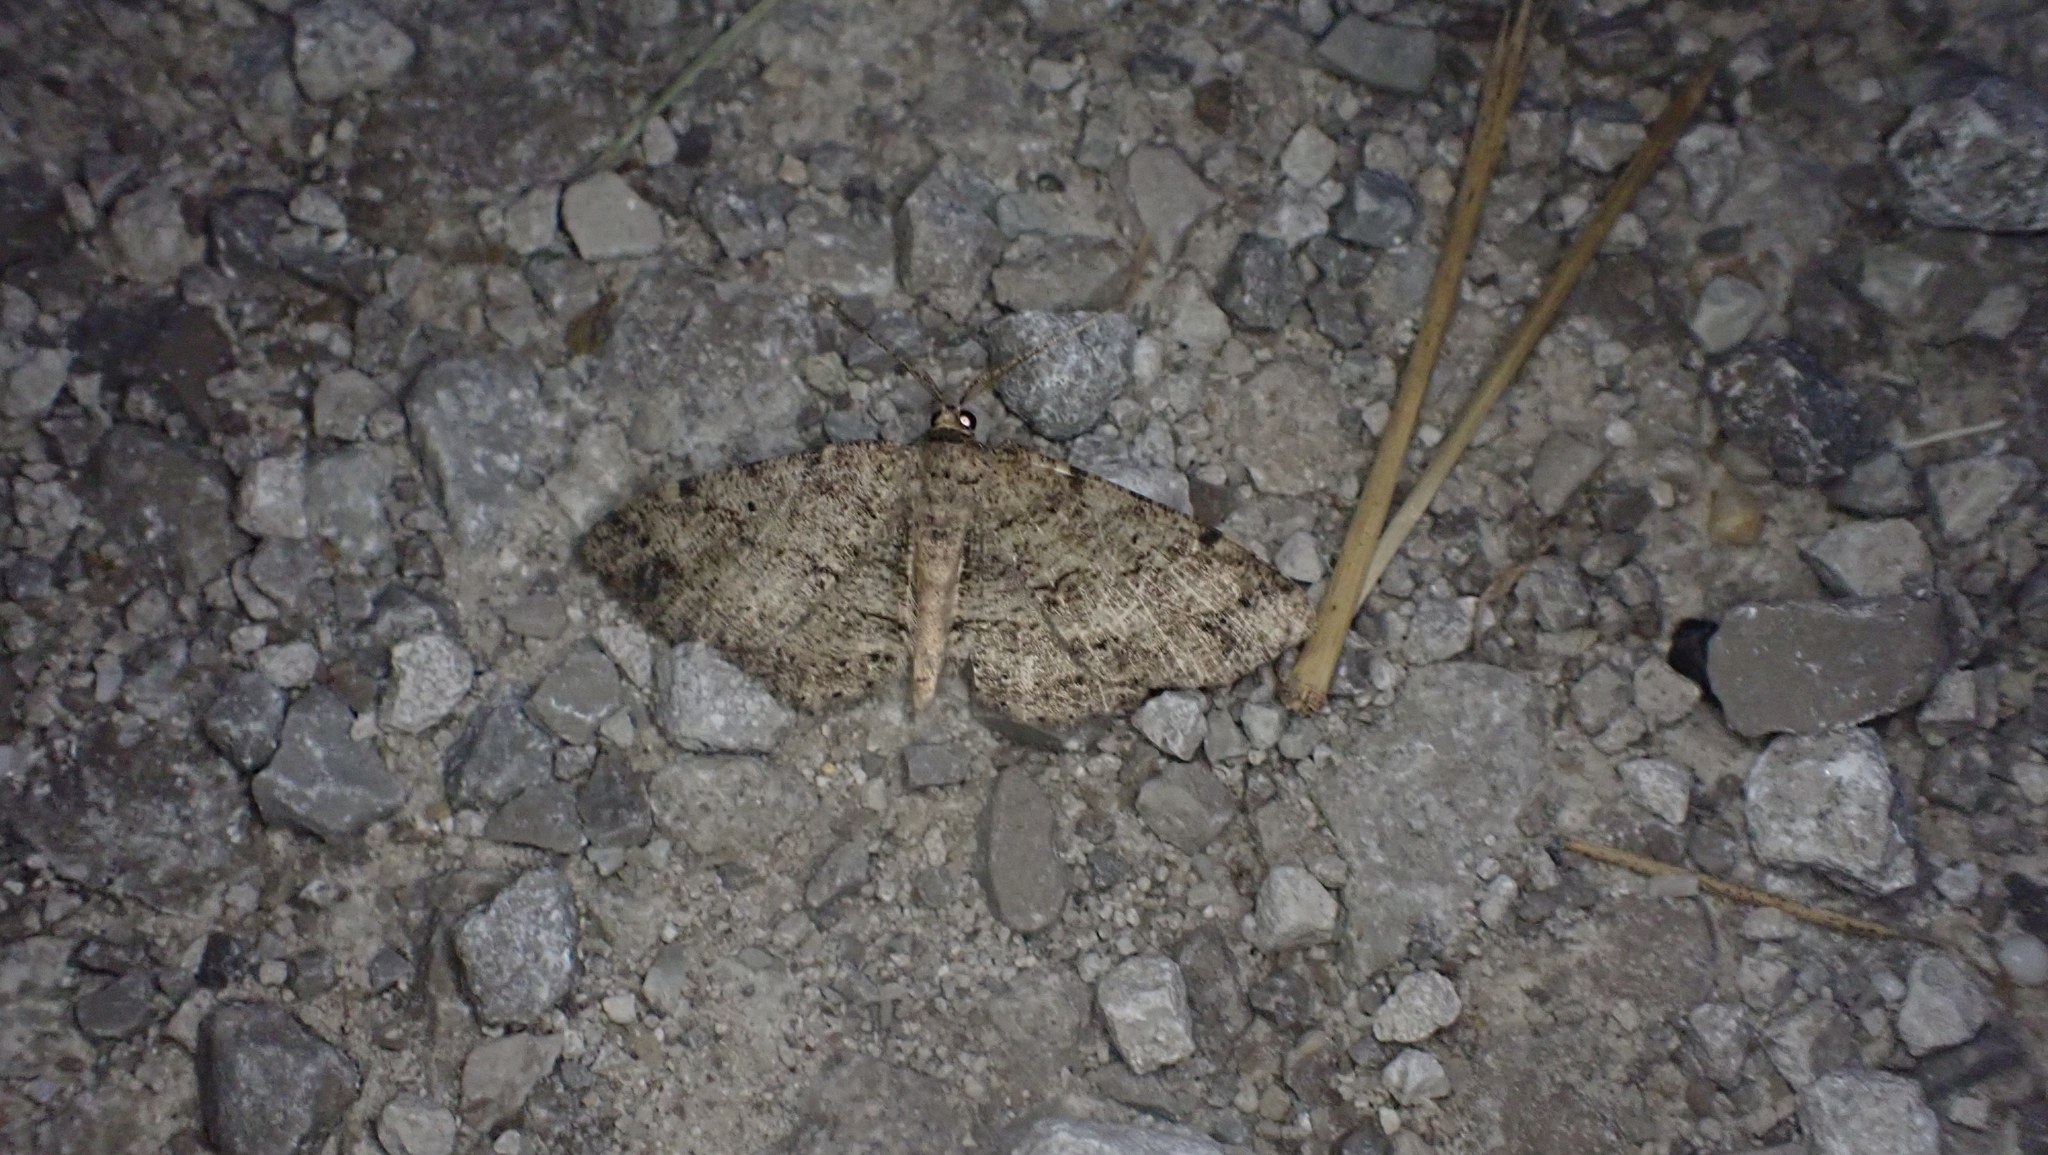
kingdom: Animalia
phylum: Arthropoda
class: Insecta
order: Lepidoptera
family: Geometridae
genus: Melanolophia
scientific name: Melanolophia canadaria
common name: Canadian melanolophia
